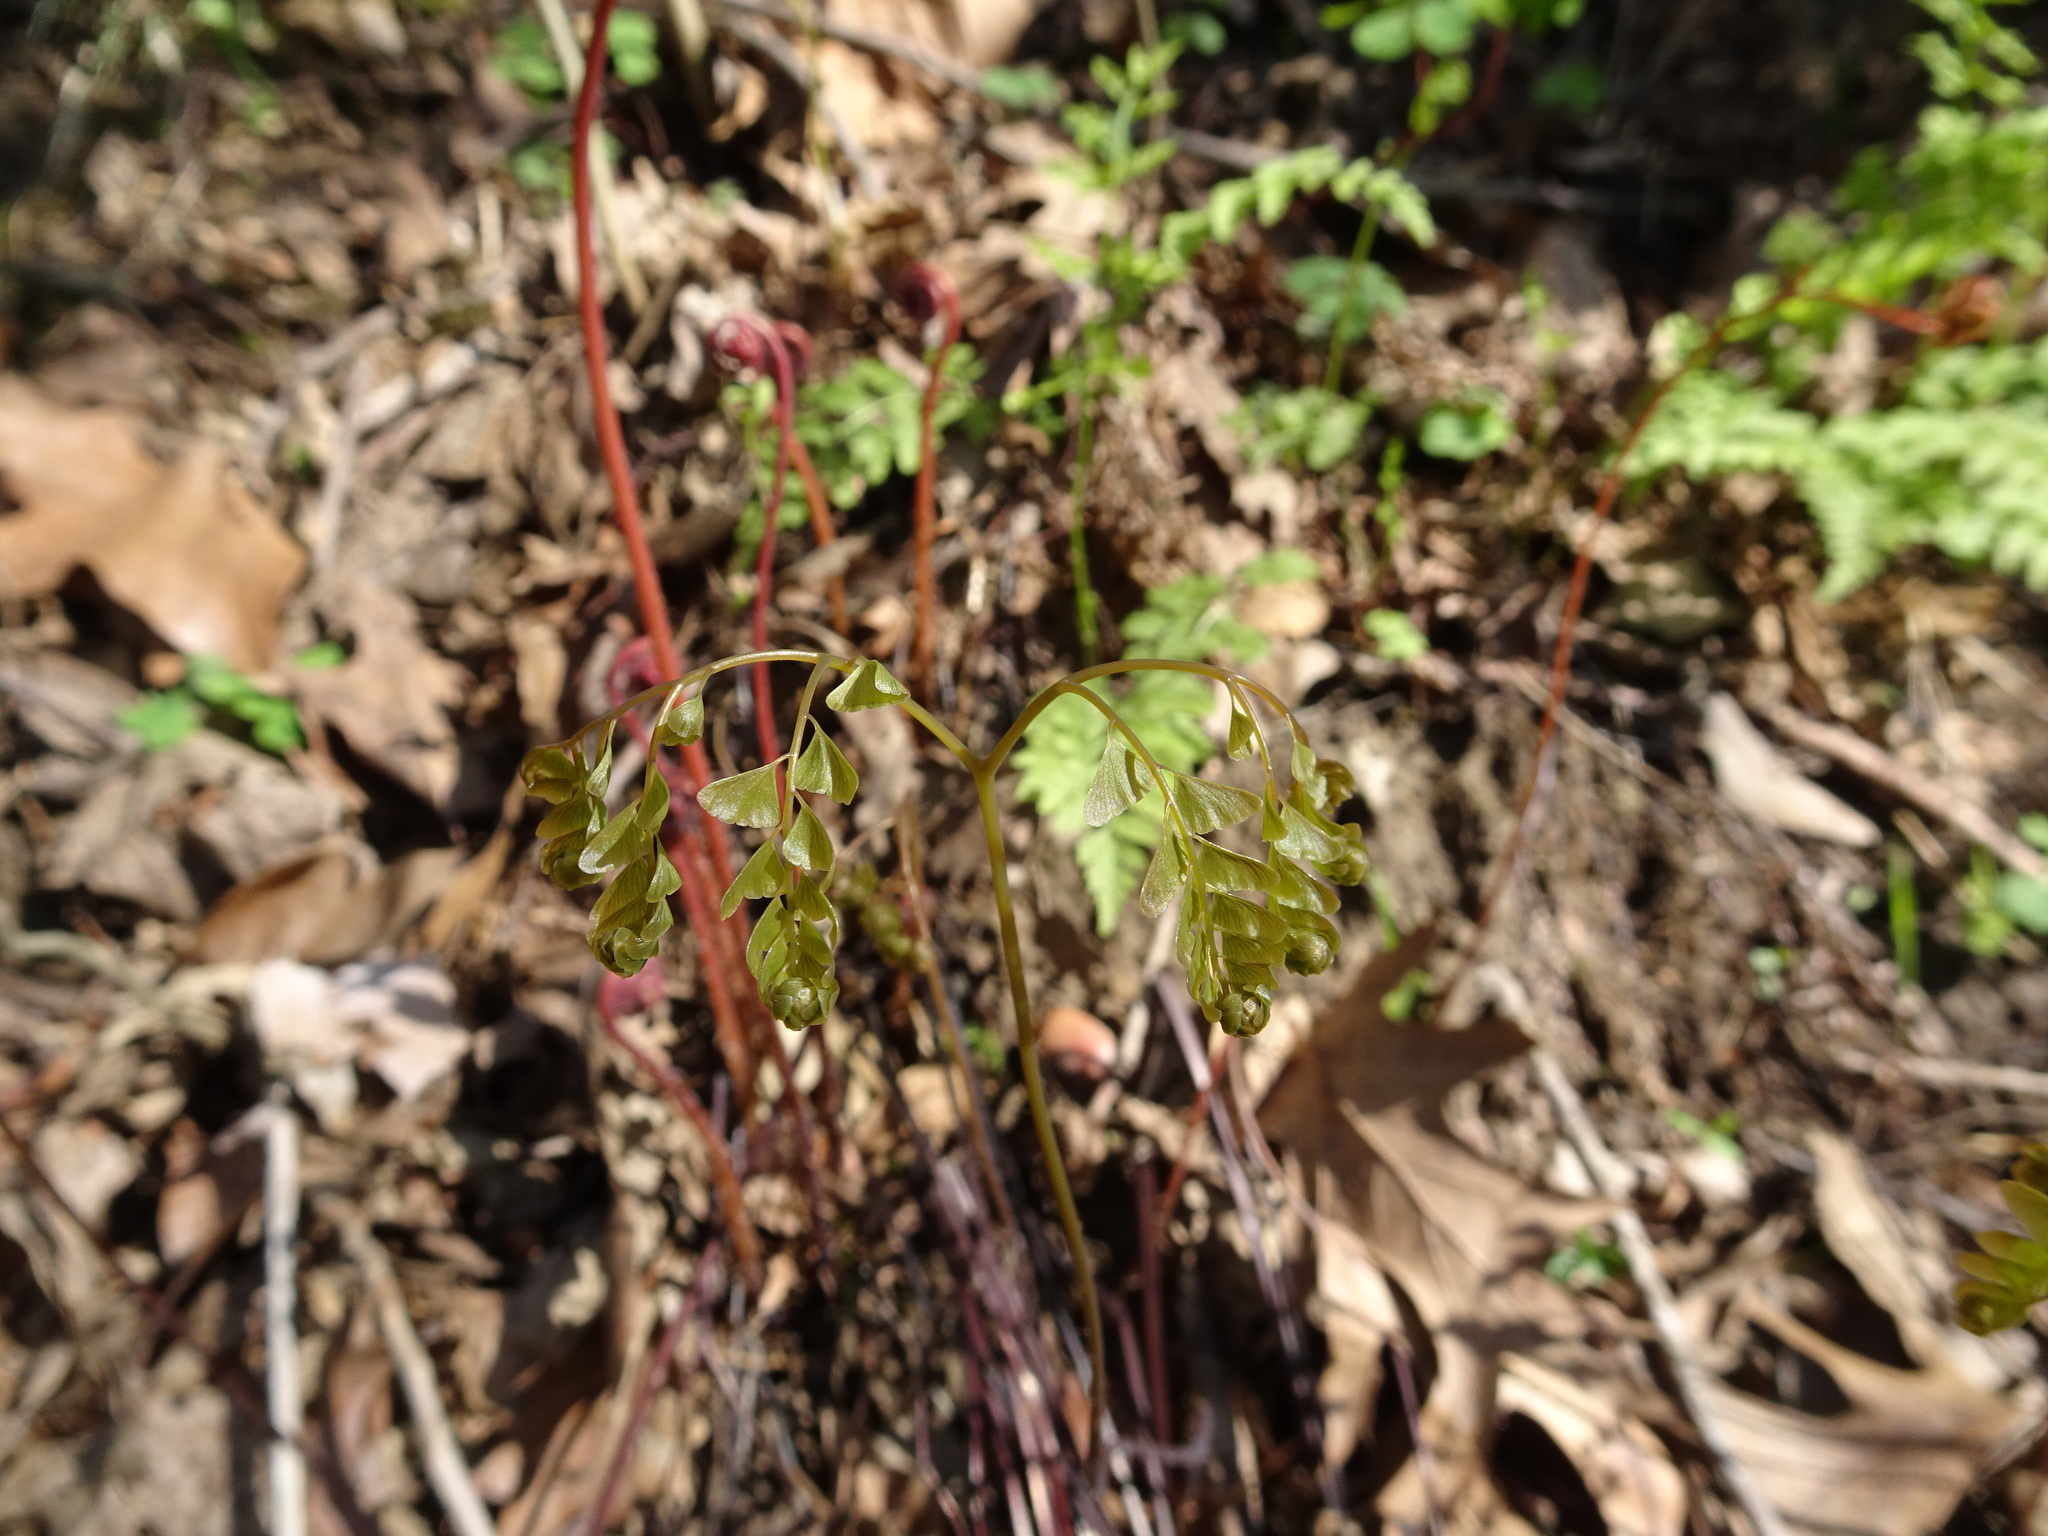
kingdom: Plantae
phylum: Tracheophyta
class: Polypodiopsida
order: Polypodiales
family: Pteridaceae
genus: Adiantum
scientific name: Adiantum pedatum
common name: Five-finger fern
